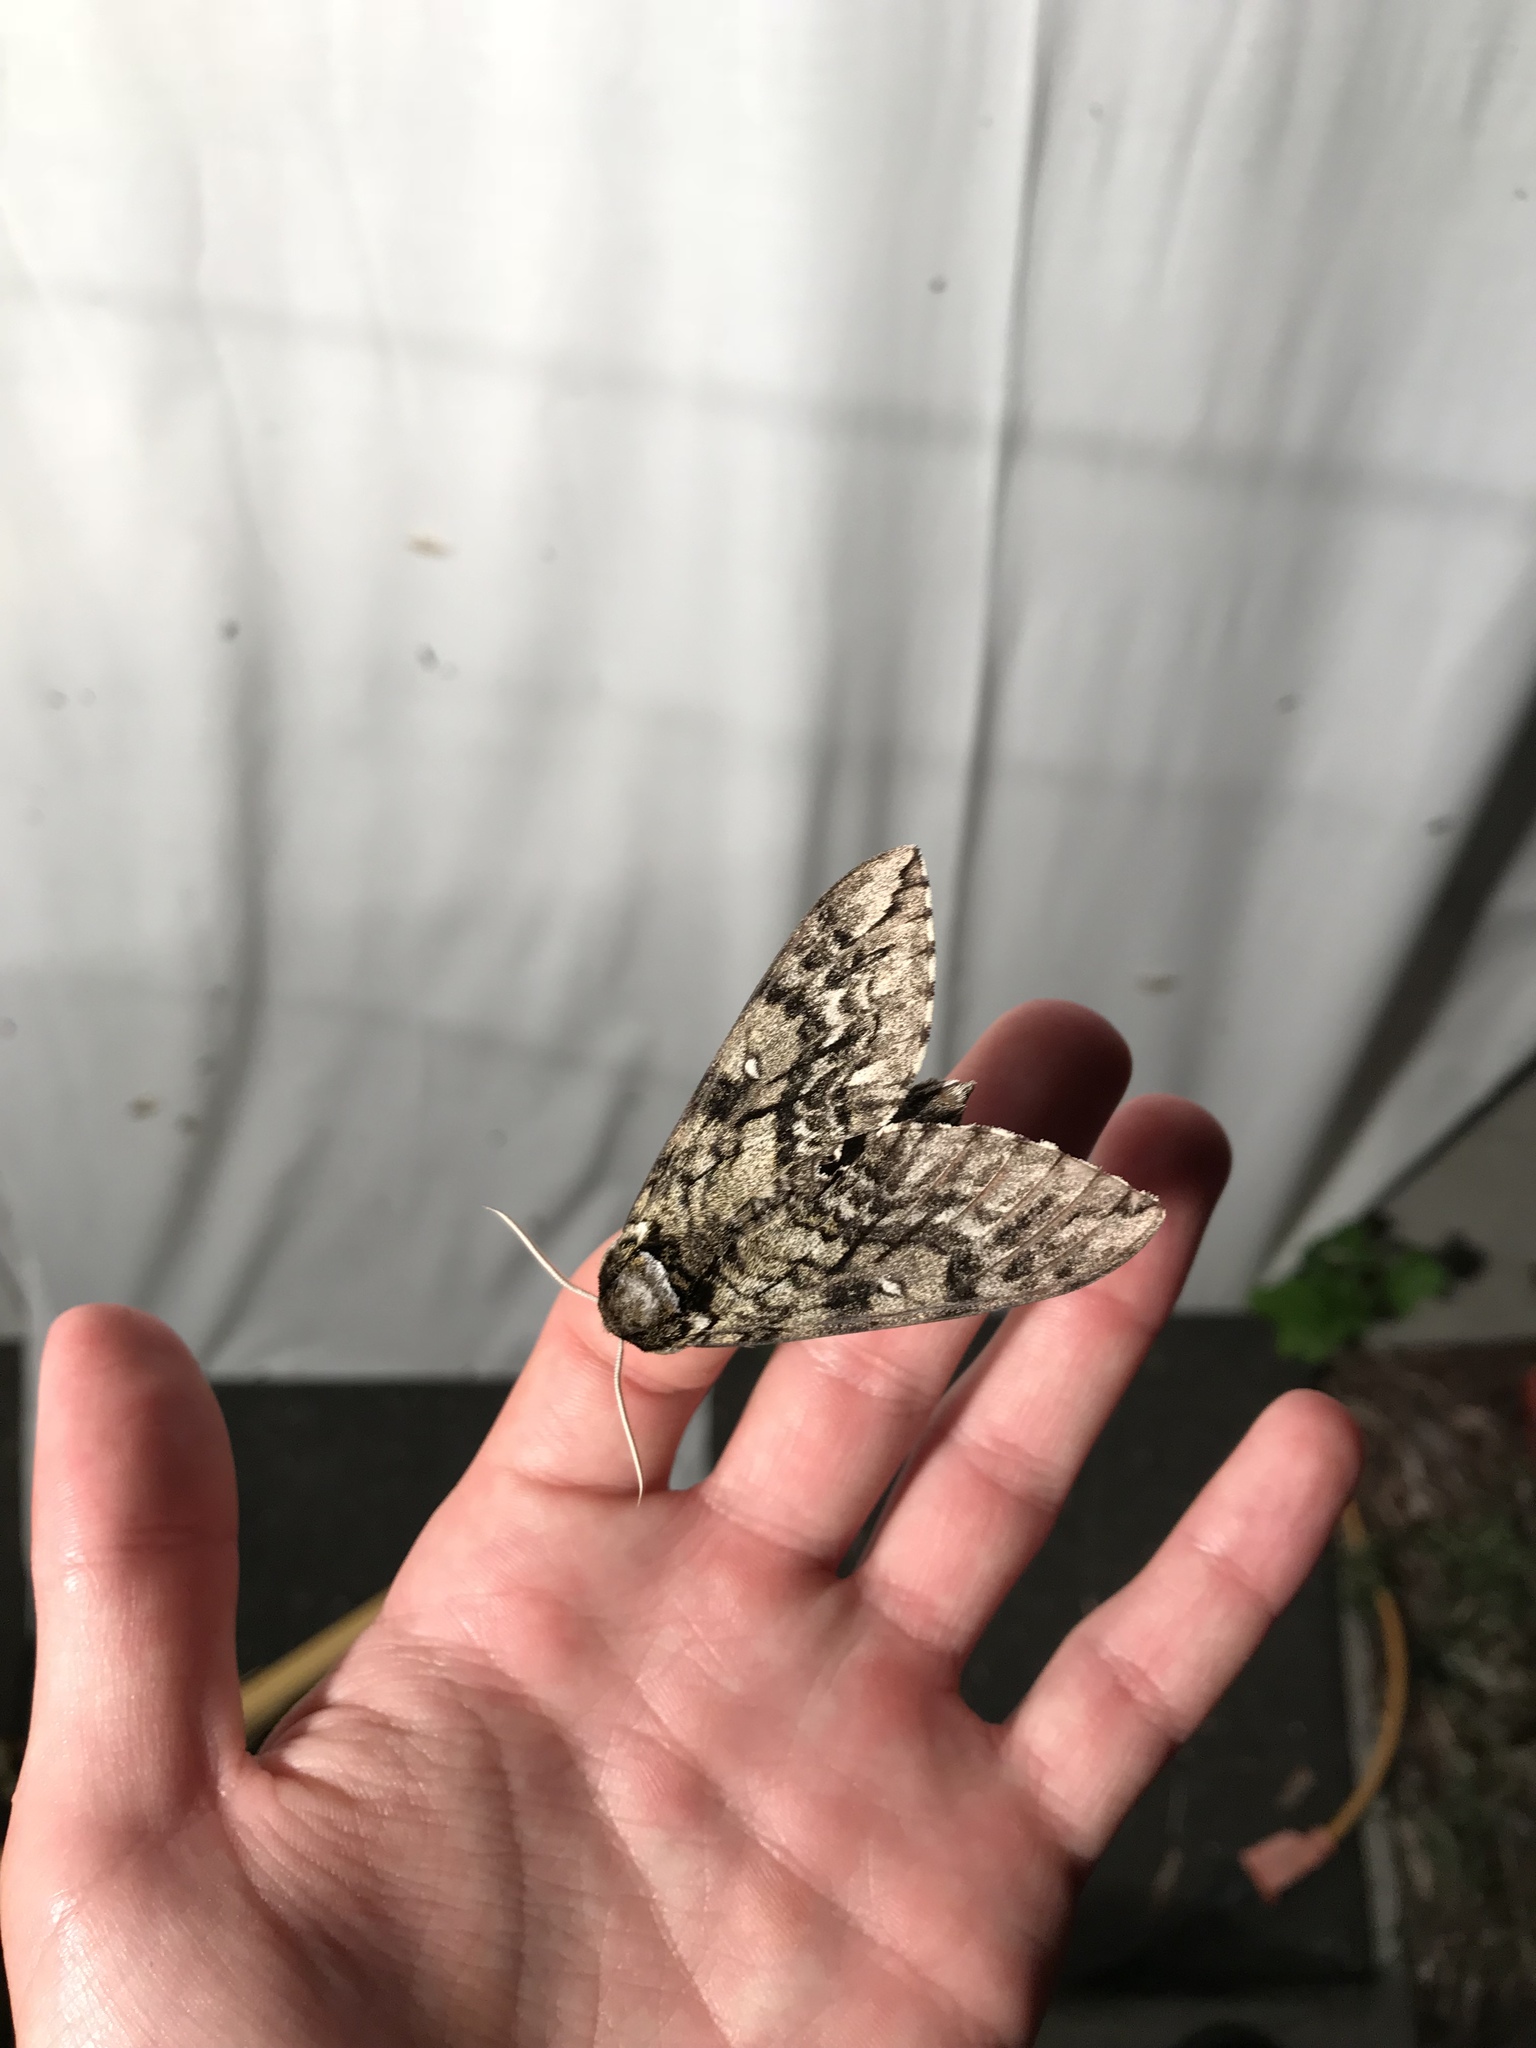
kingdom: Animalia
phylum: Arthropoda
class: Insecta
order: Lepidoptera
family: Sphingidae
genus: Ceratomia
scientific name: Ceratomia undulosa
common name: Waved sphinx
